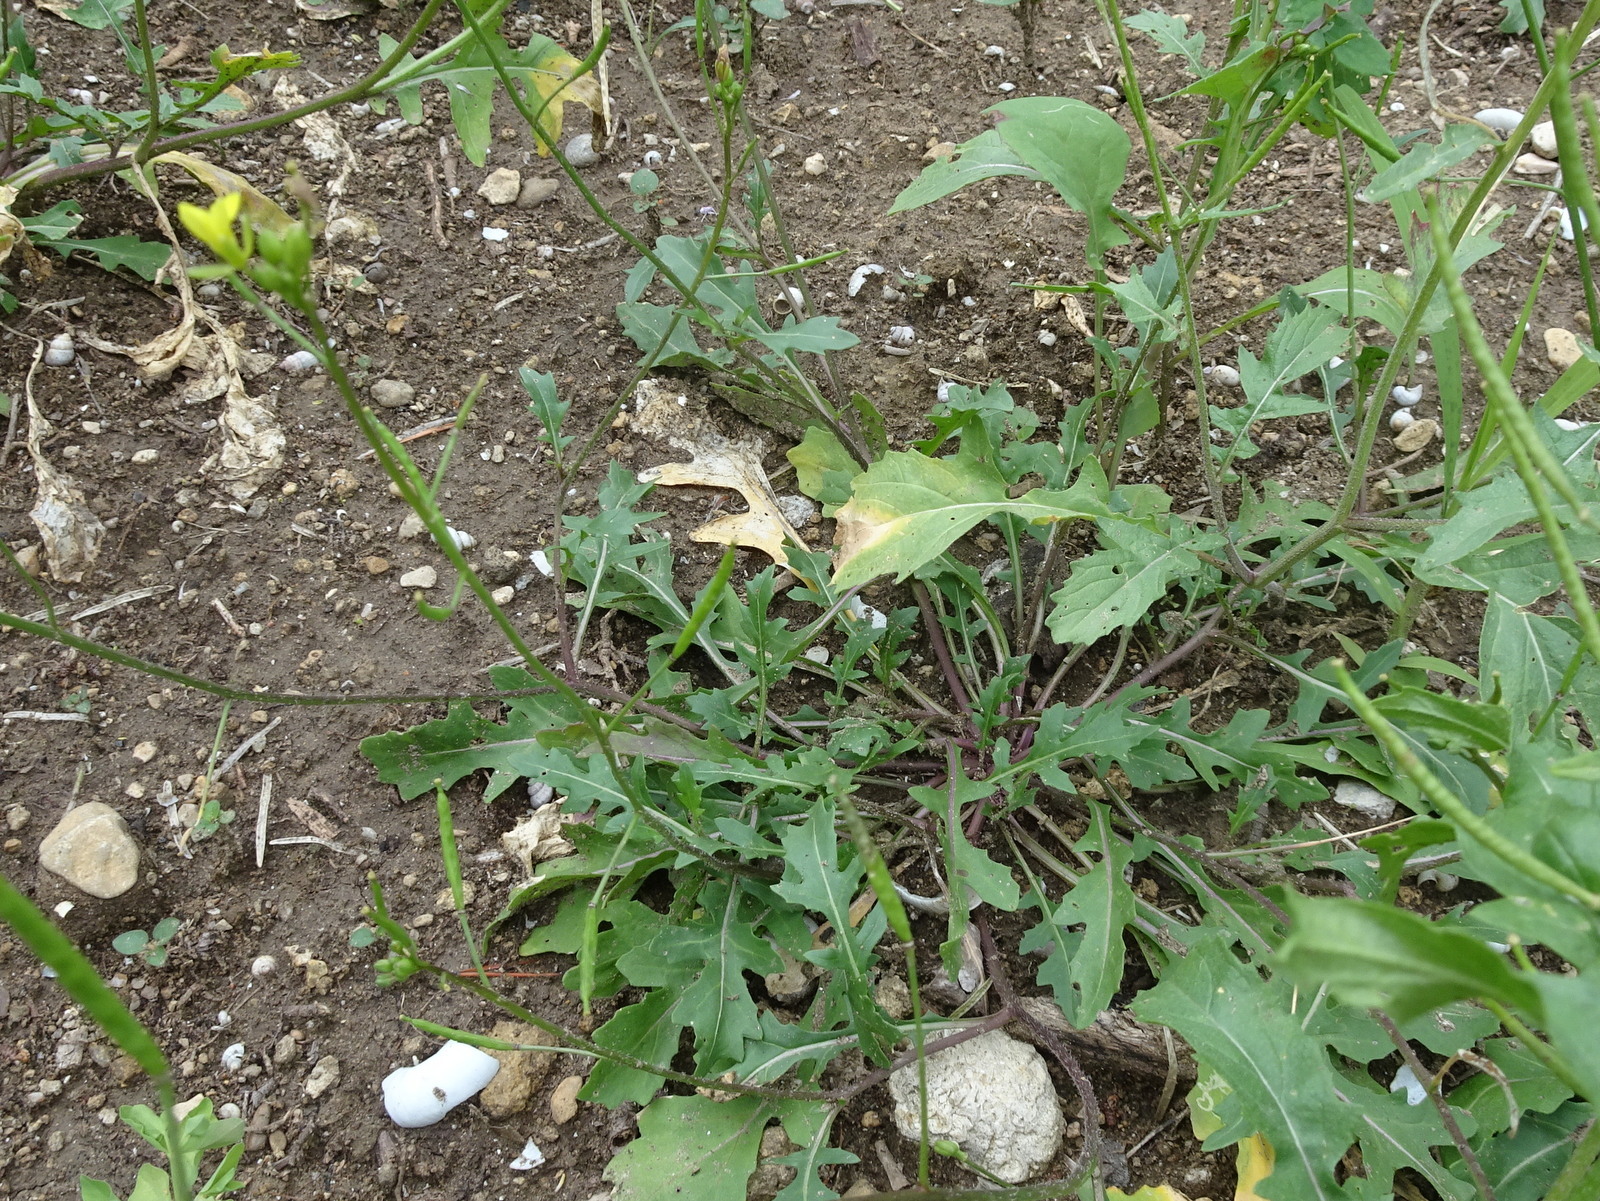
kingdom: Plantae
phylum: Tracheophyta
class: Magnoliopsida
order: Brassicales
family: Brassicaceae
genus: Diplotaxis
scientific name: Diplotaxis tenuifolia
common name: Perennial wall-rocket
